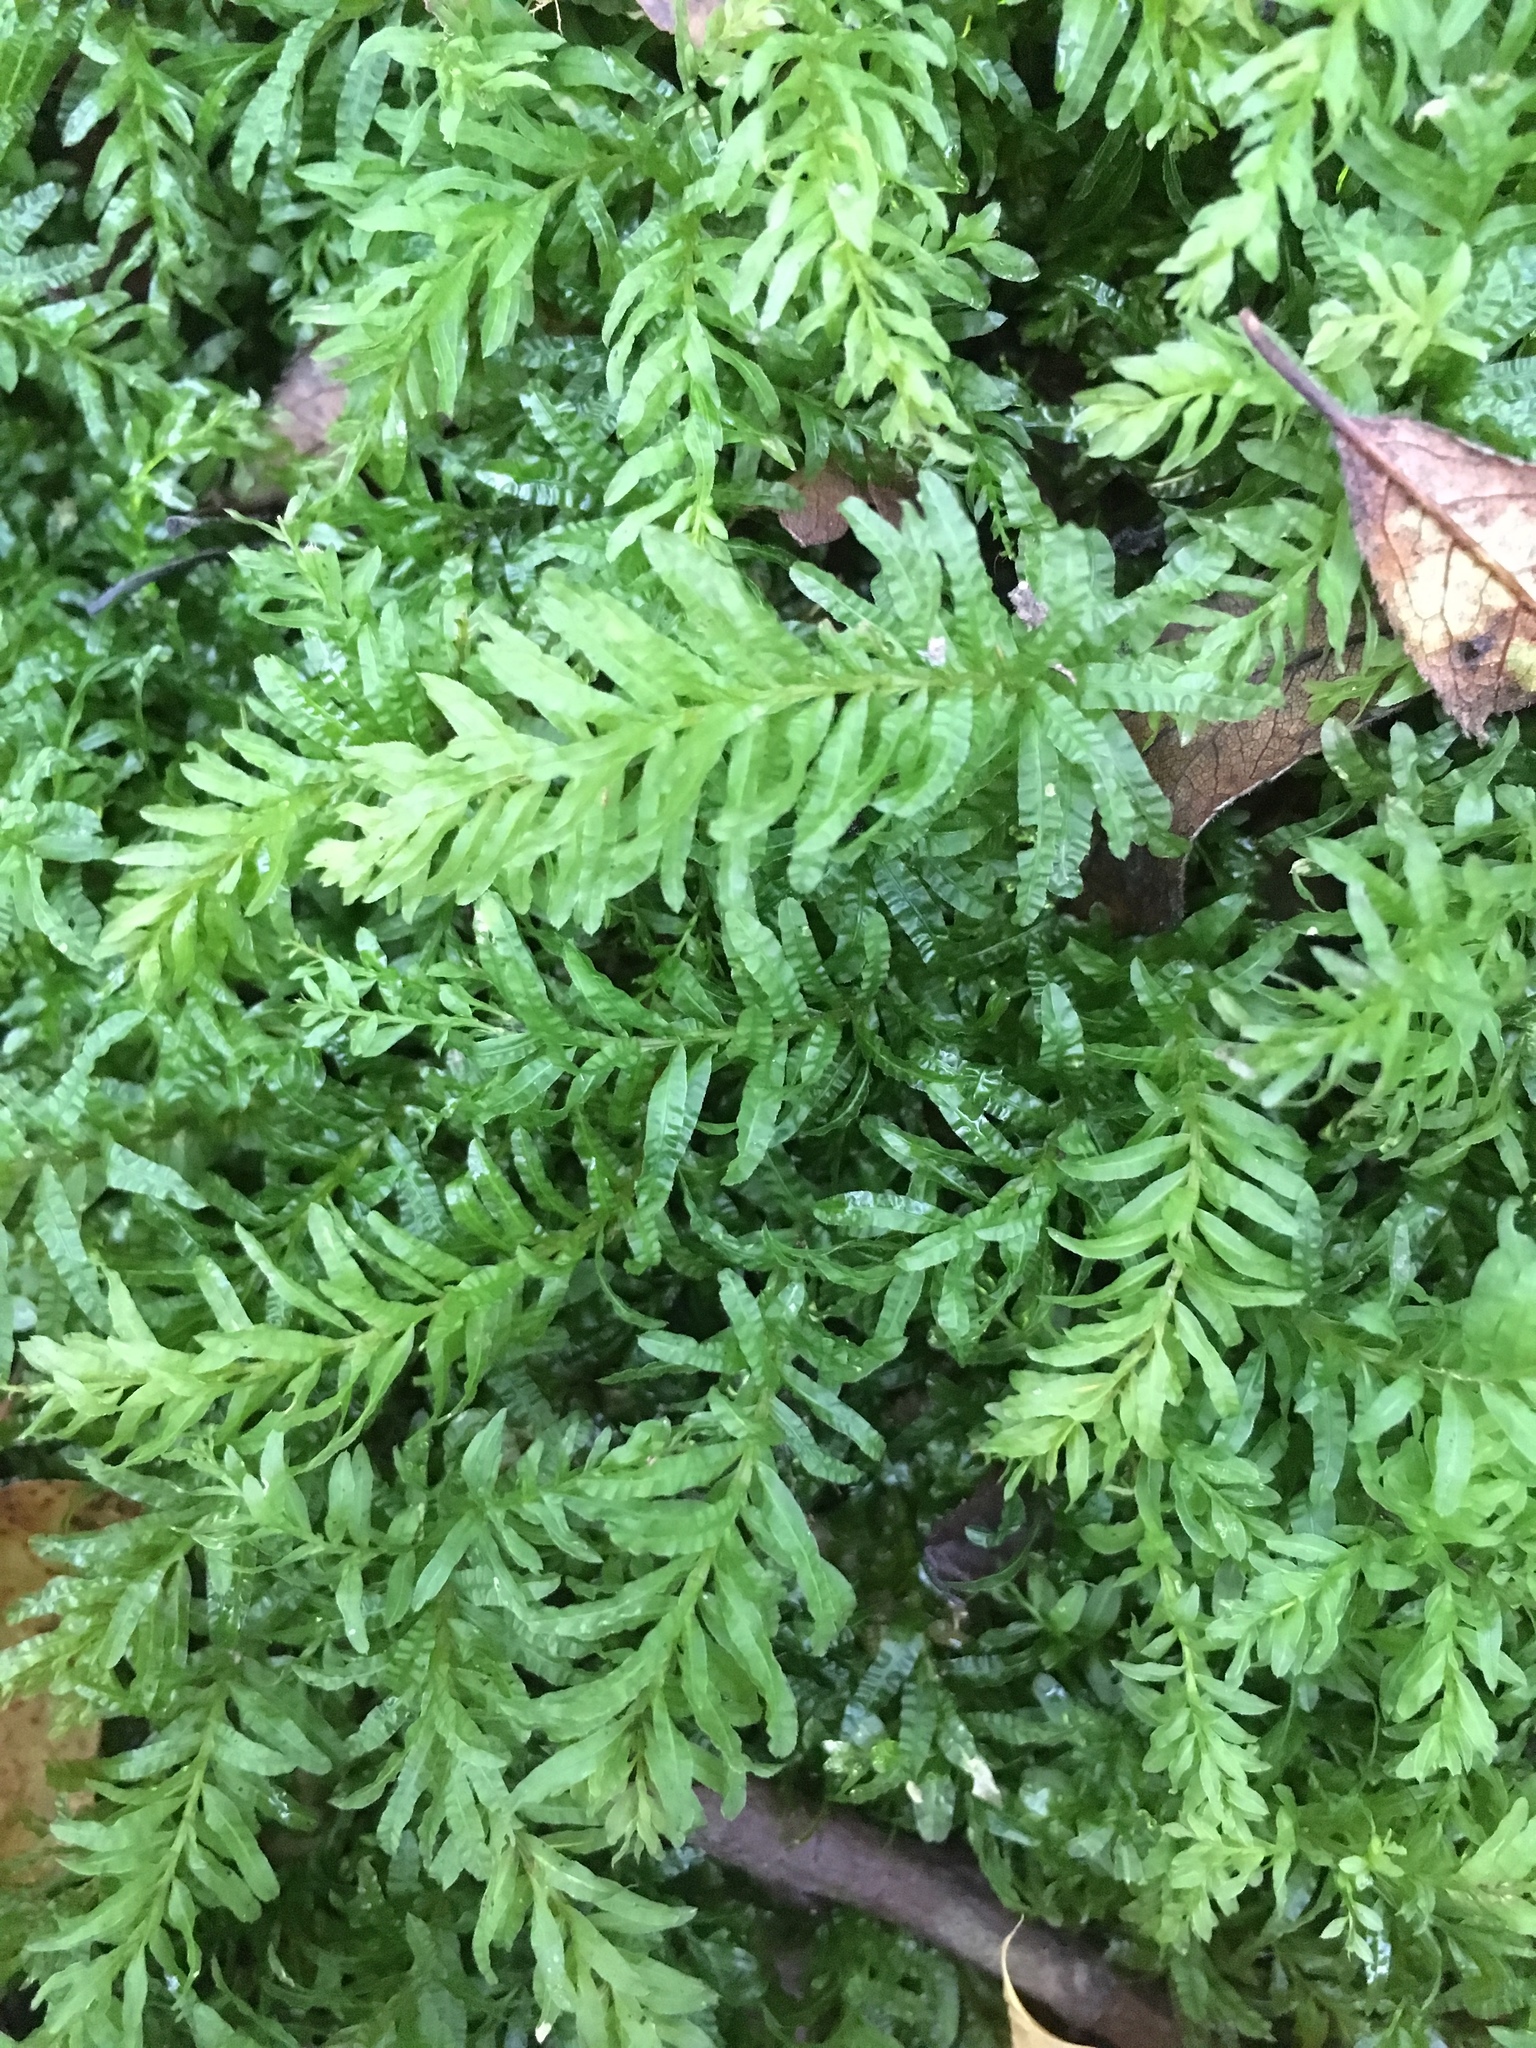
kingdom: Plantae
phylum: Bryophyta
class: Bryopsida
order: Bryales
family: Mniaceae
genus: Plagiomnium
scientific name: Plagiomnium undulatum
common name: Hart's-tongue thyme-moss
